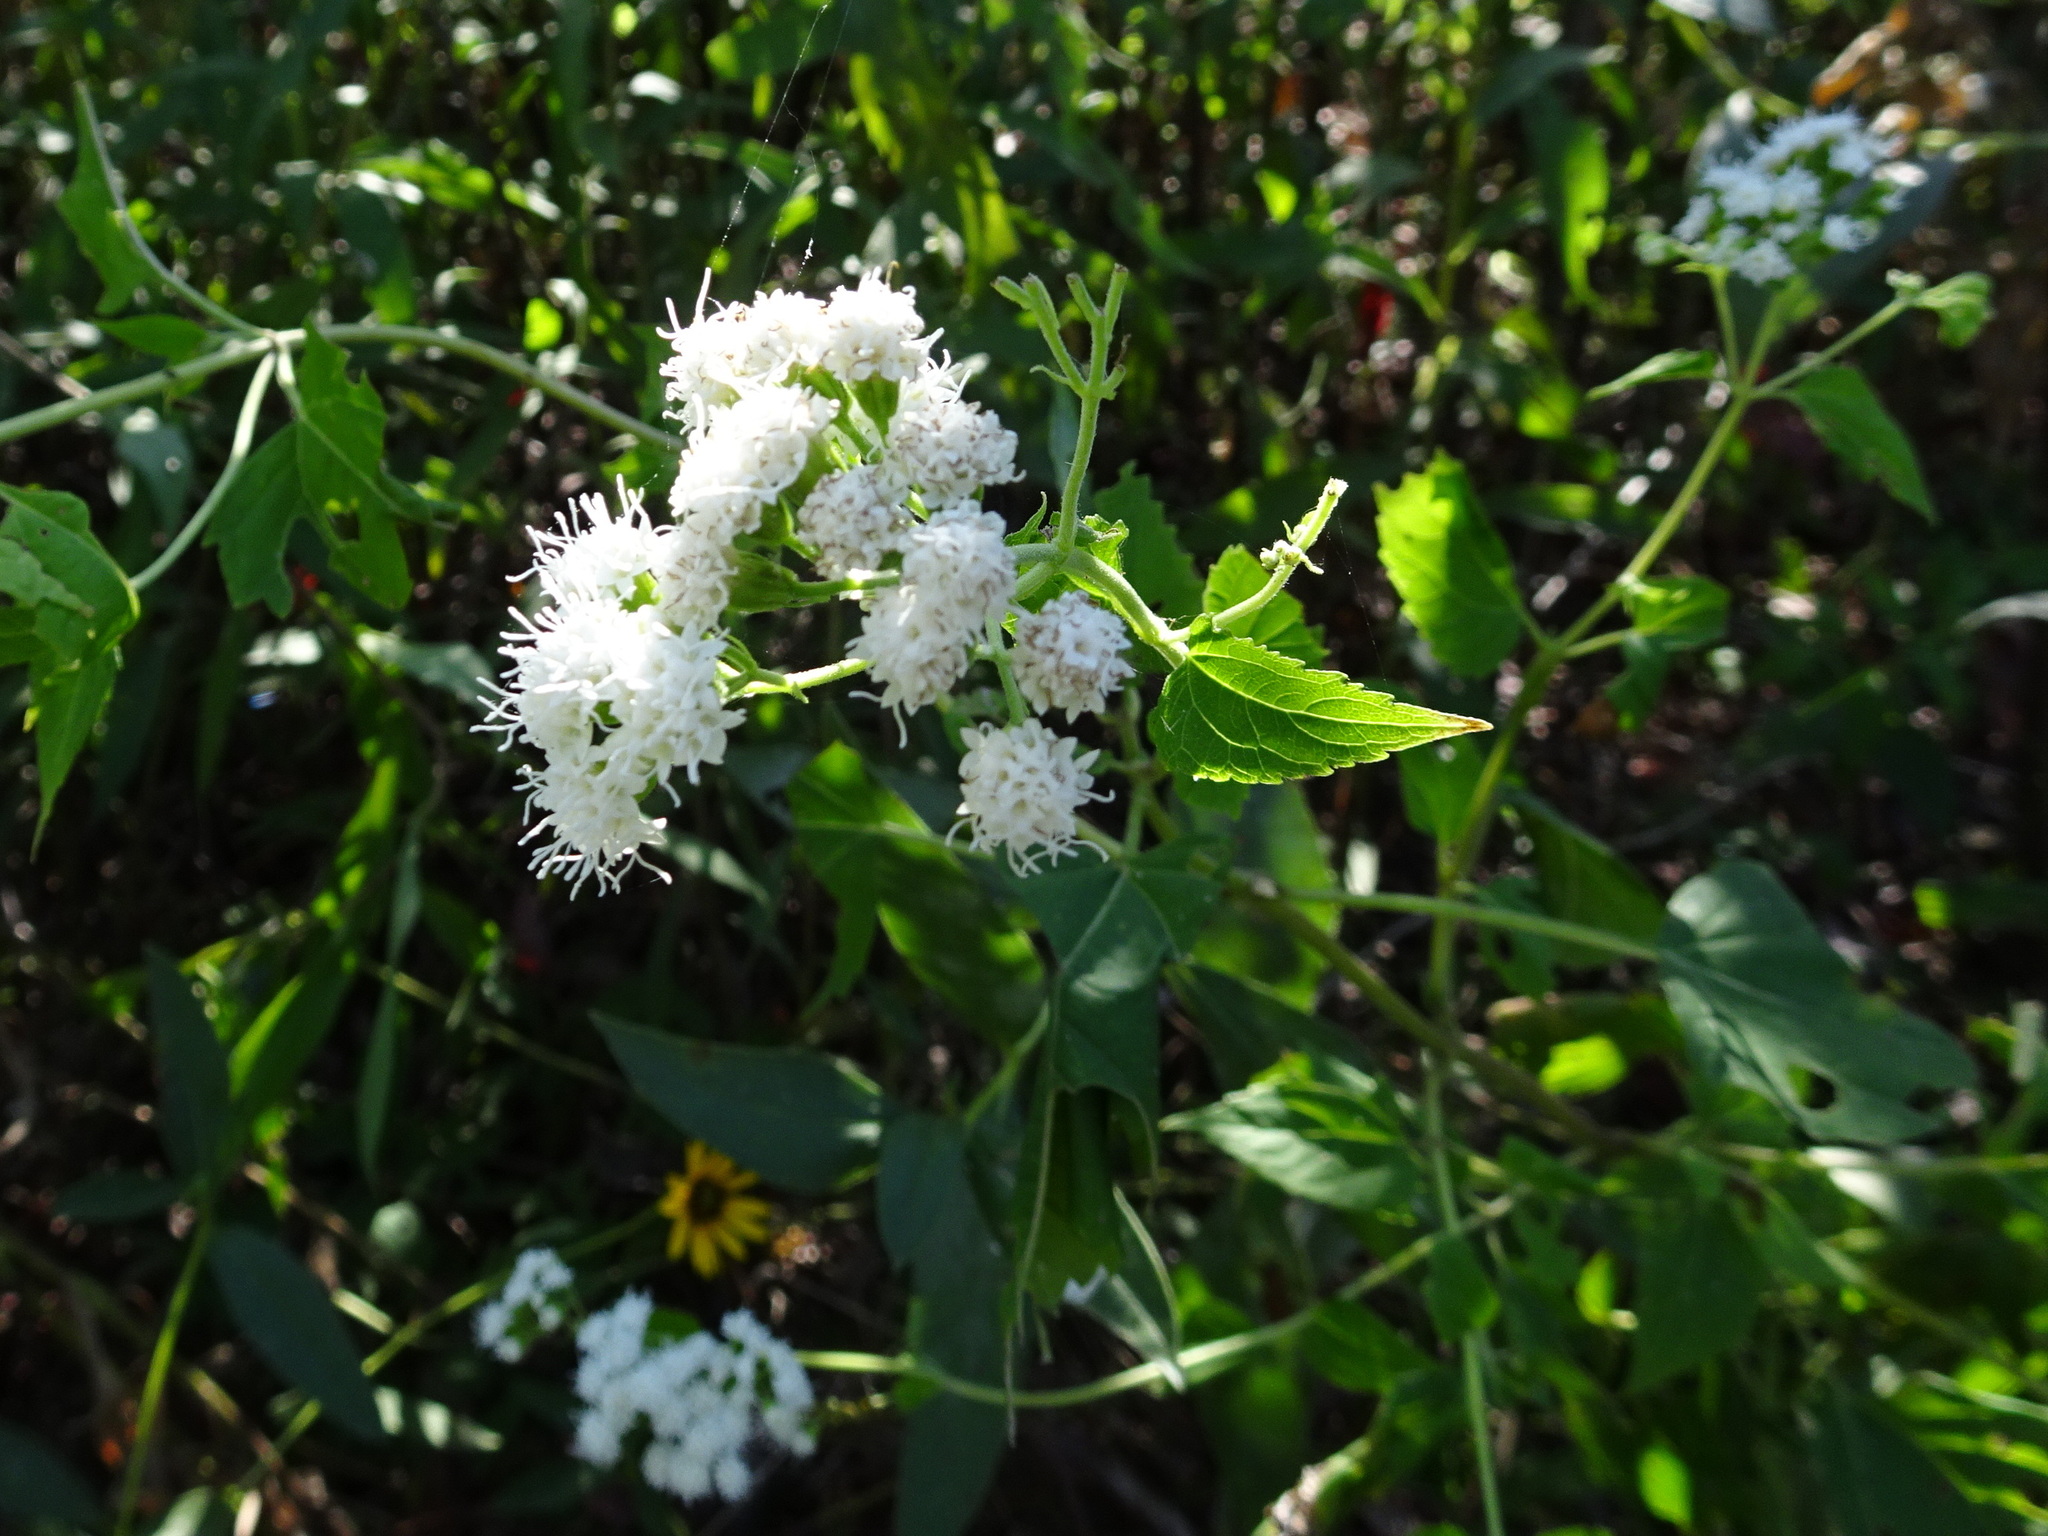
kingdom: Plantae
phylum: Tracheophyta
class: Magnoliopsida
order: Asterales
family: Asteraceae
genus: Ageratina
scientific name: Ageratina altissima
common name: White snakeroot
